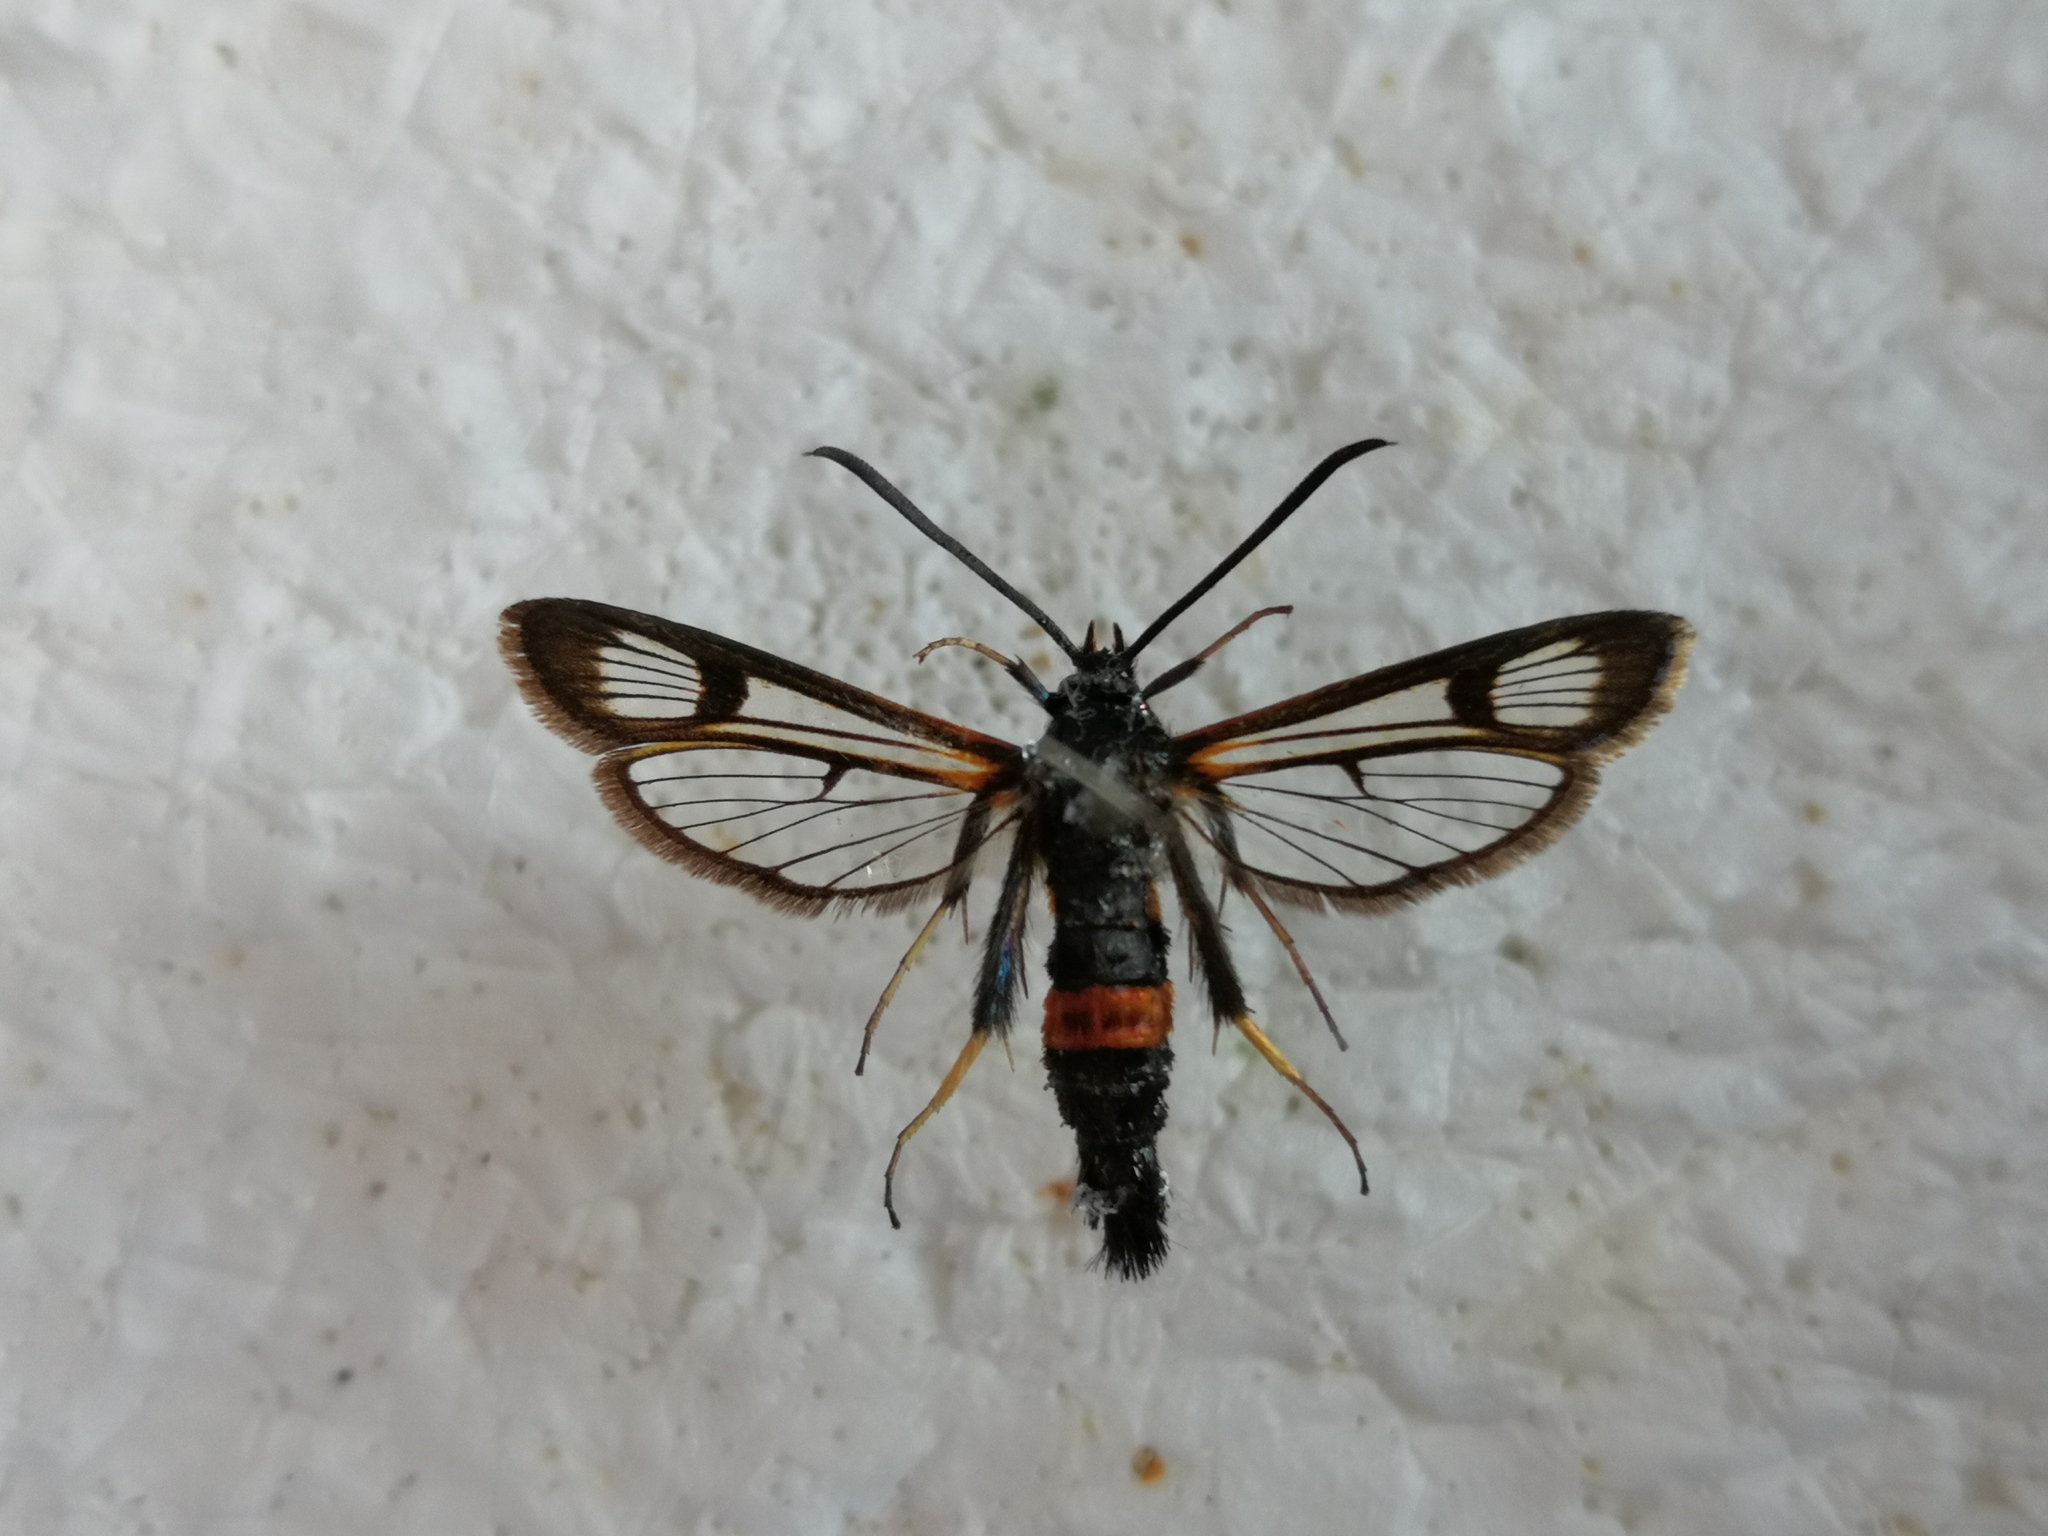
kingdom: Animalia
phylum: Arthropoda
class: Insecta
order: Lepidoptera
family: Sesiidae
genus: Synanthedon
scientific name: Synanthedon culiciformis
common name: Large red-belted clearwing
